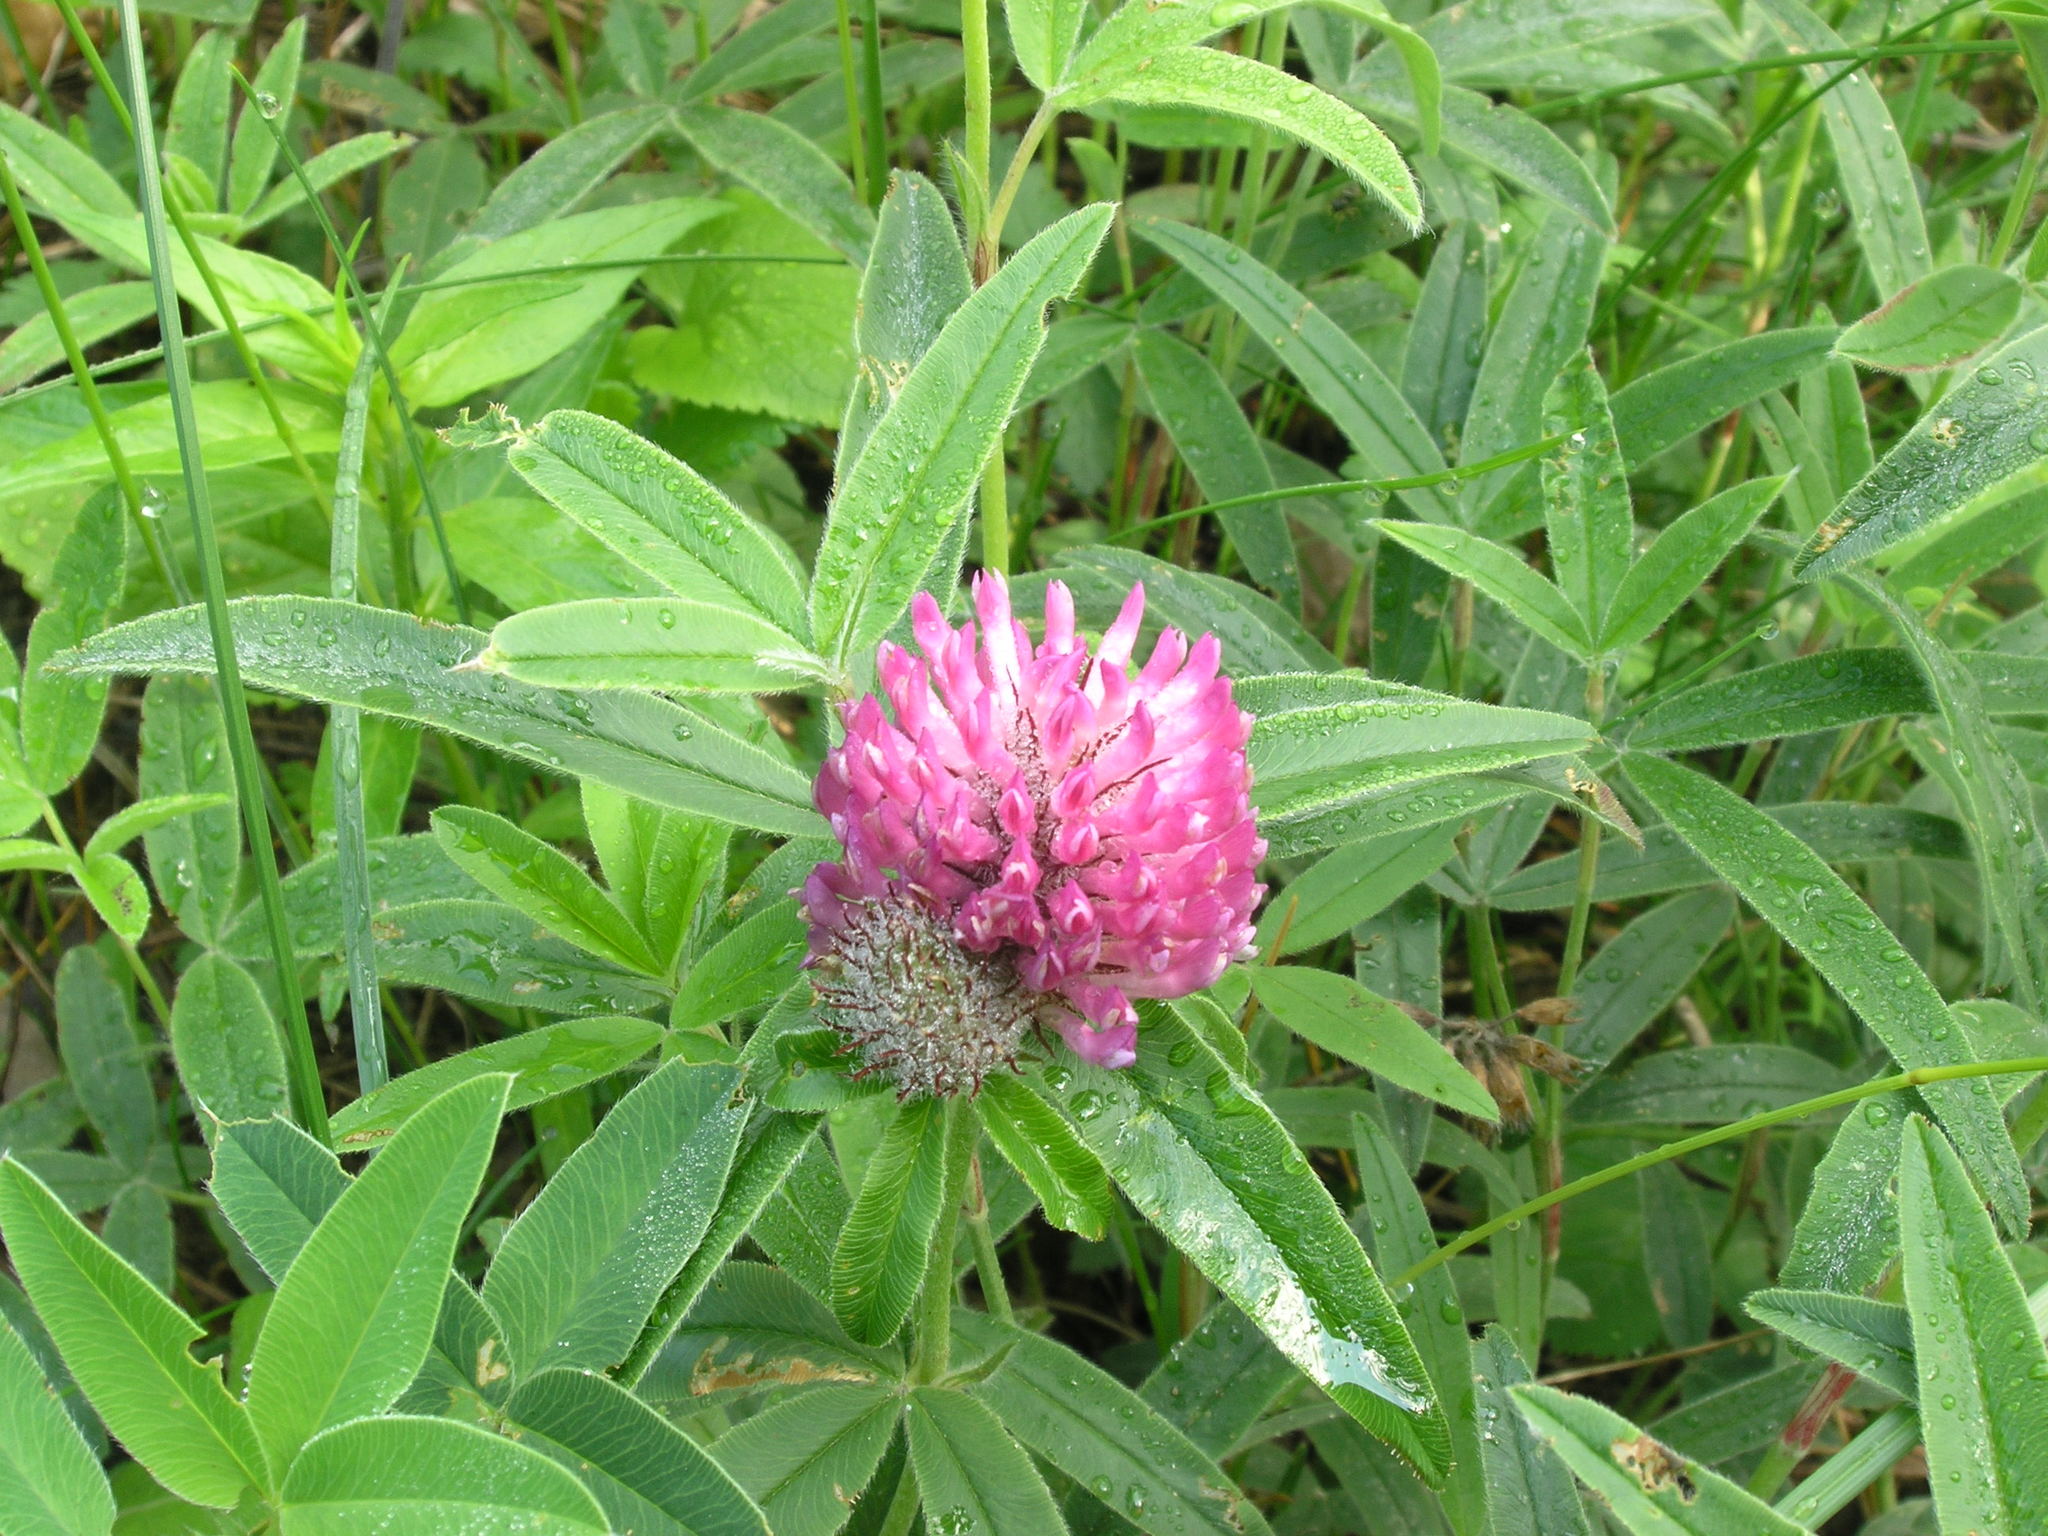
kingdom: Plantae
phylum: Tracheophyta
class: Magnoliopsida
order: Fabales
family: Fabaceae
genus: Trifolium
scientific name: Trifolium alpestre
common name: Owl-head clover
